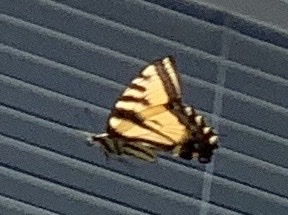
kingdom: Animalia
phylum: Arthropoda
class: Insecta
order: Lepidoptera
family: Papilionidae
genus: Papilio
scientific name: Papilio rutulus
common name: Western tiger swallowtail
